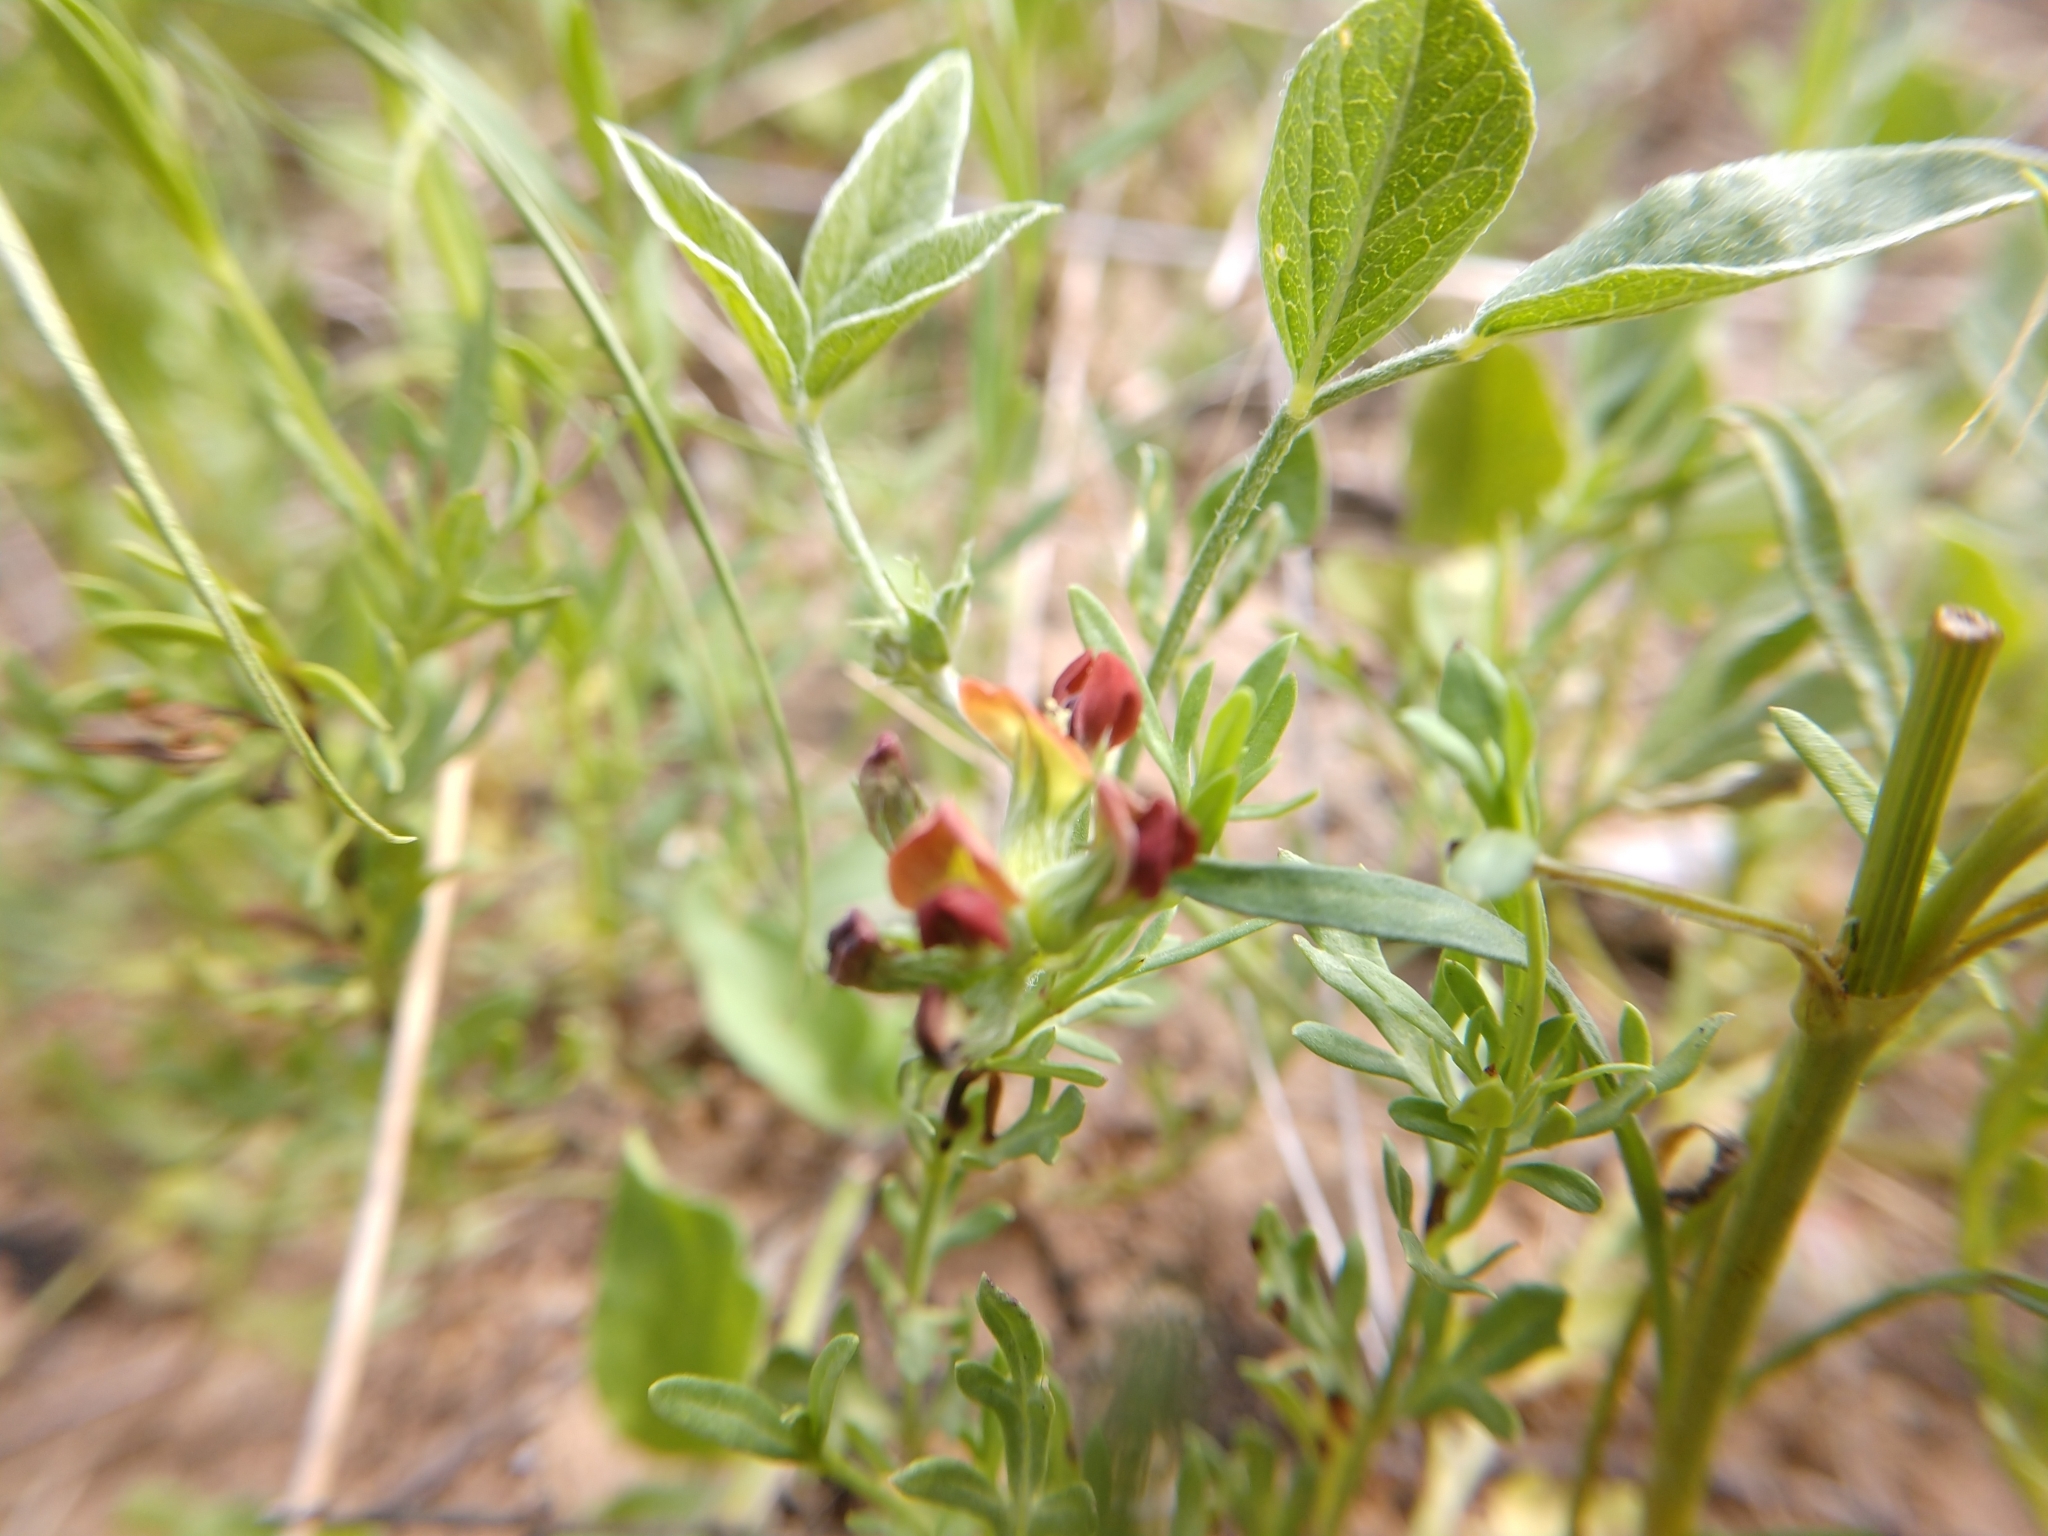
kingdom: Plantae
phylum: Tracheophyta
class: Magnoliopsida
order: Fabales
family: Fabaceae
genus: Pediomelum
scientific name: Pediomelum rhombifolium
